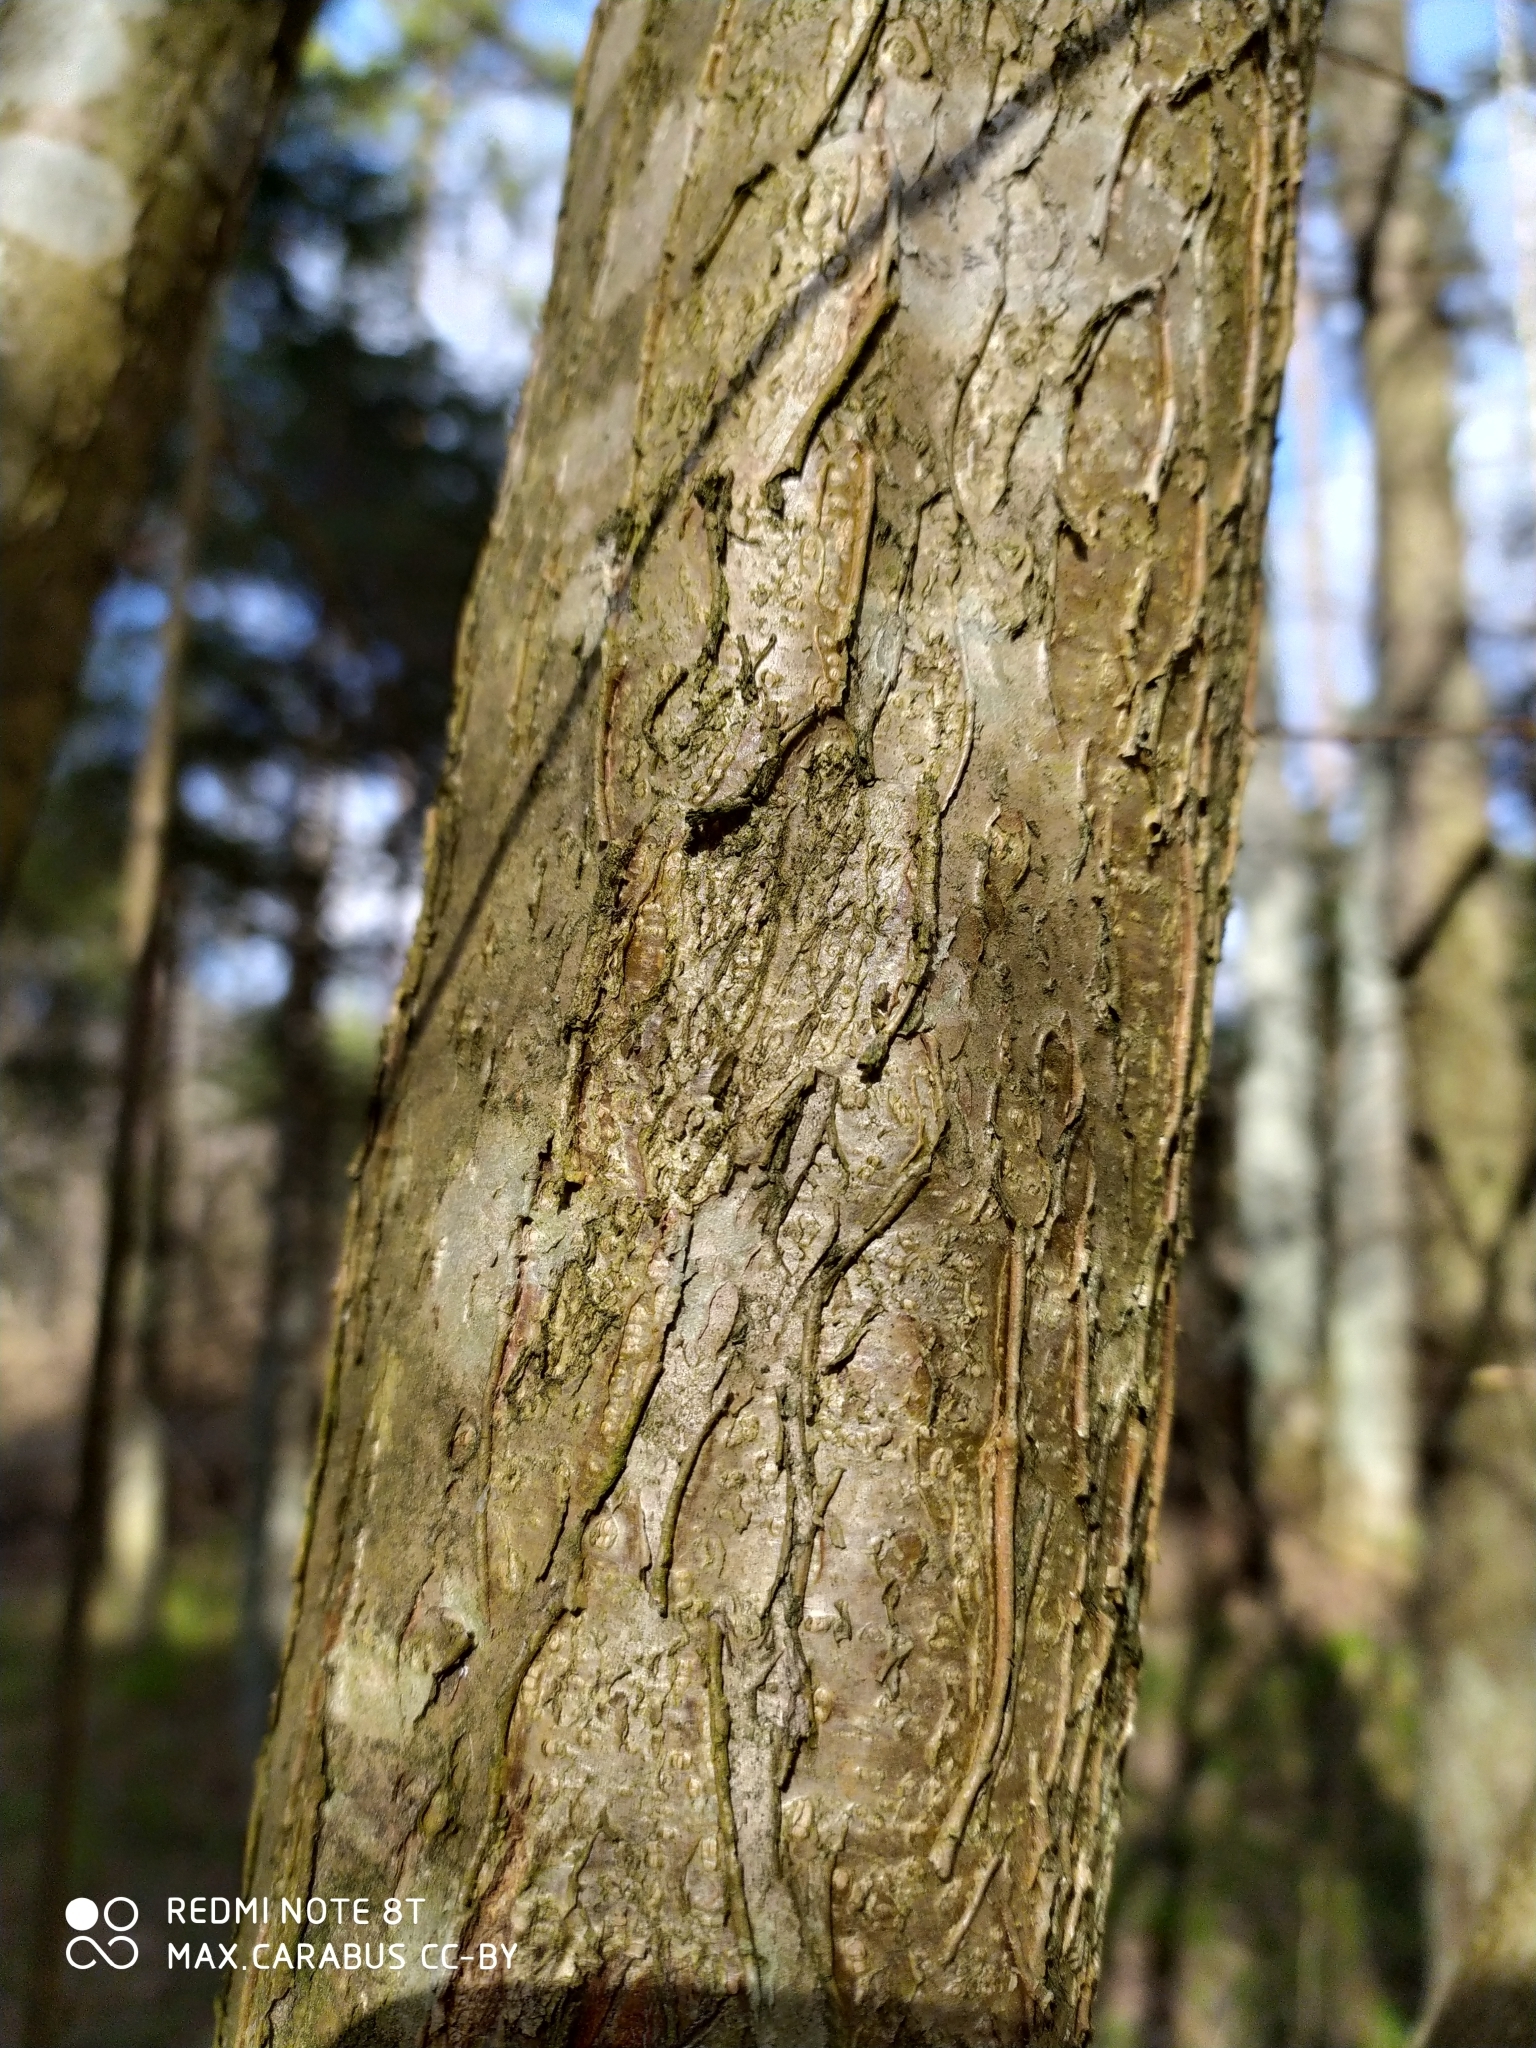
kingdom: Plantae
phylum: Tracheophyta
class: Magnoliopsida
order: Fagales
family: Betulaceae
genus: Corylus
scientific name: Corylus avellana
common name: European hazel
